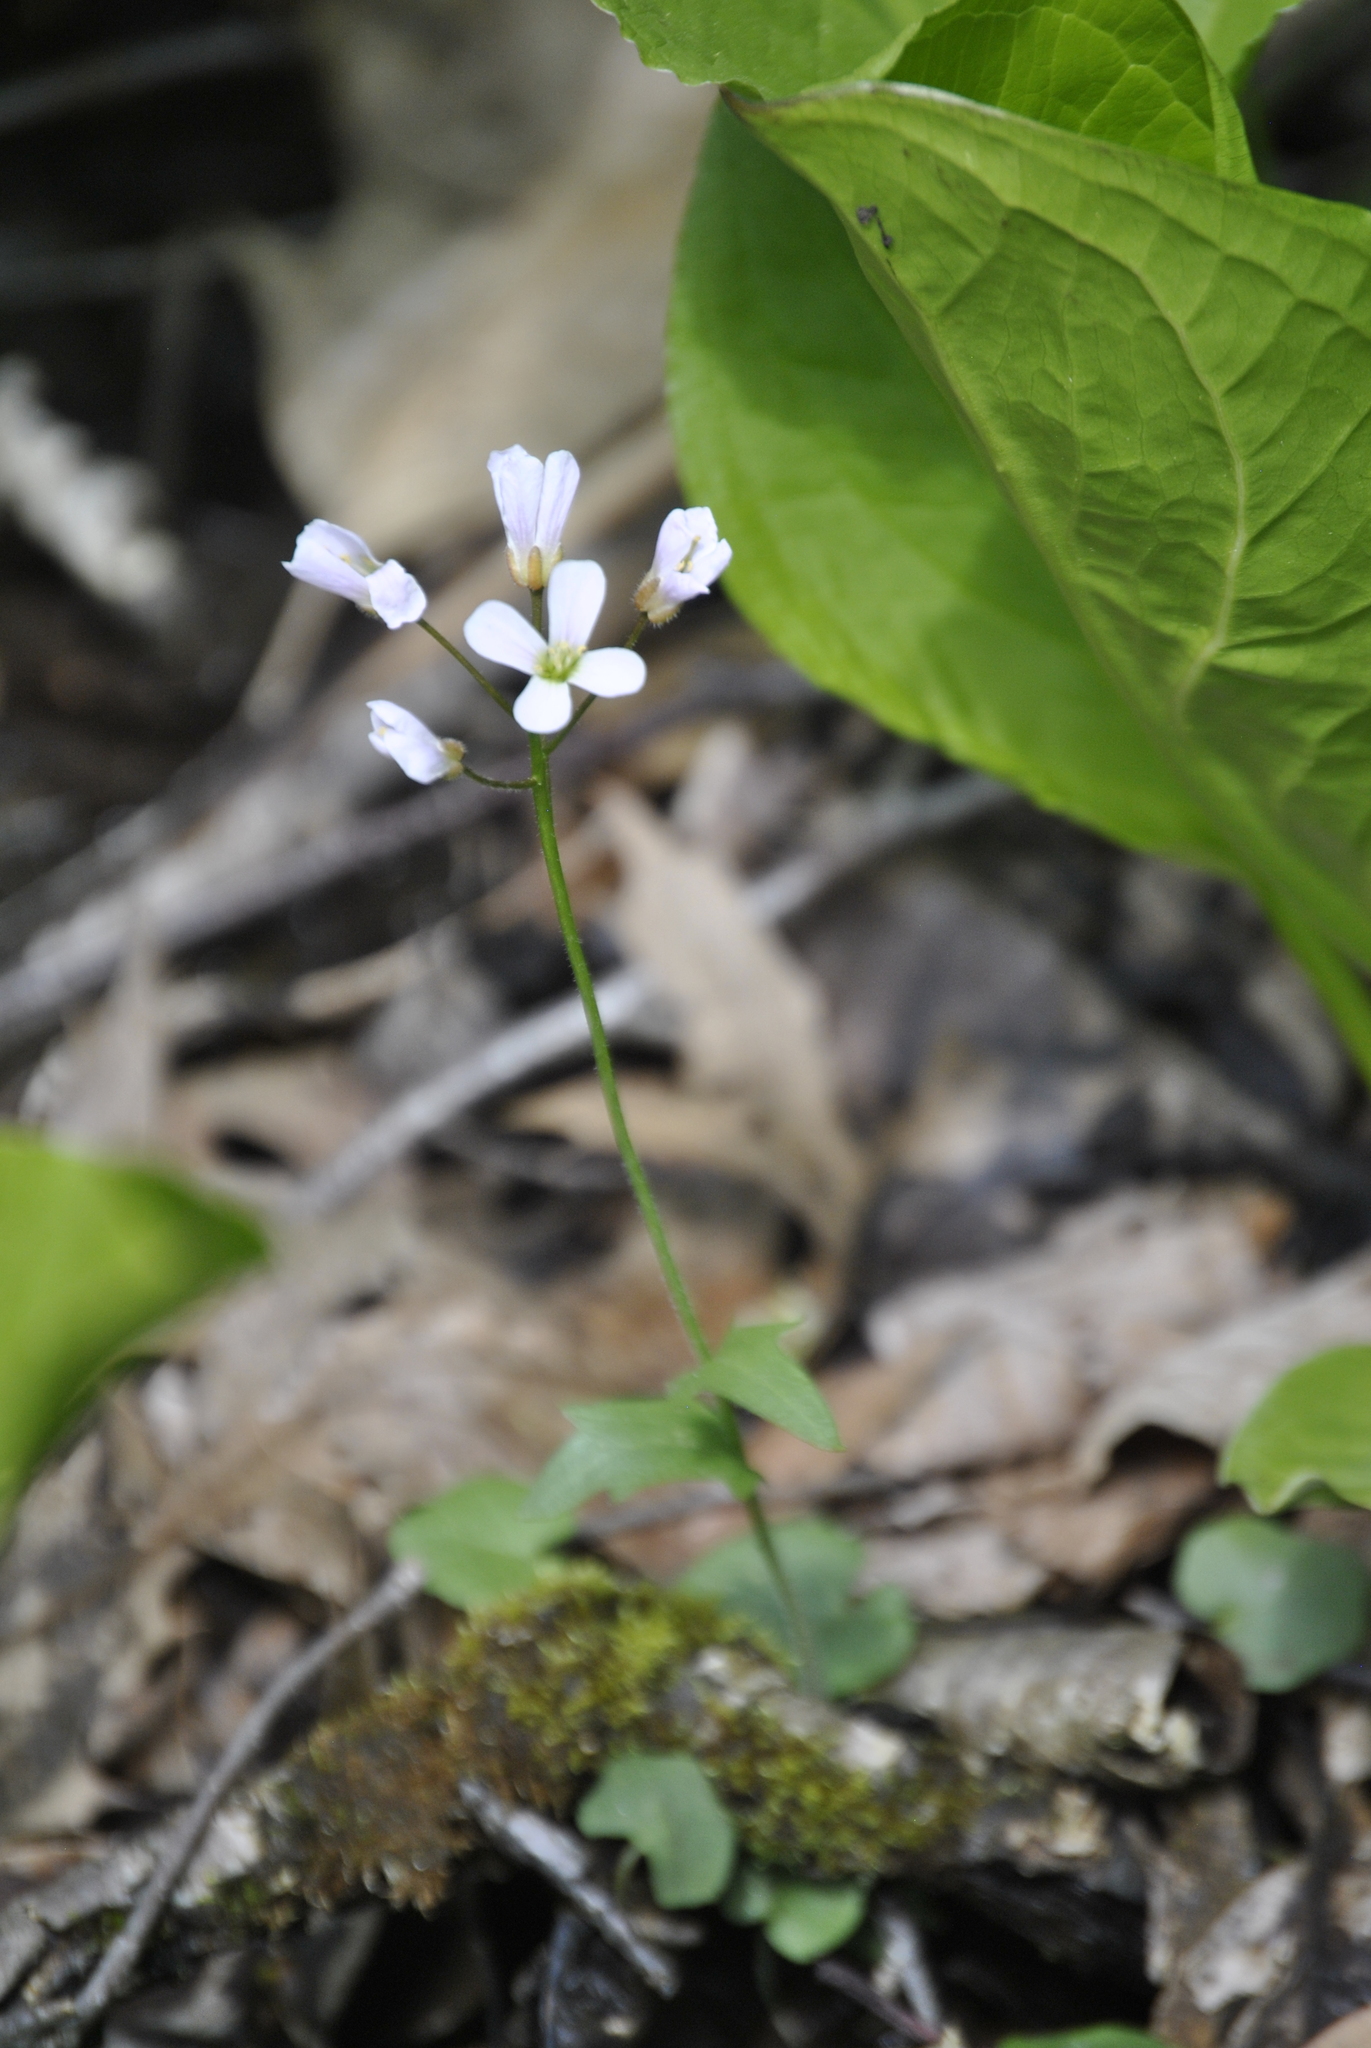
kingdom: Plantae
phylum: Tracheophyta
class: Magnoliopsida
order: Brassicales
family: Brassicaceae
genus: Cardamine
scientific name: Cardamine douglassii
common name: Purple cress
